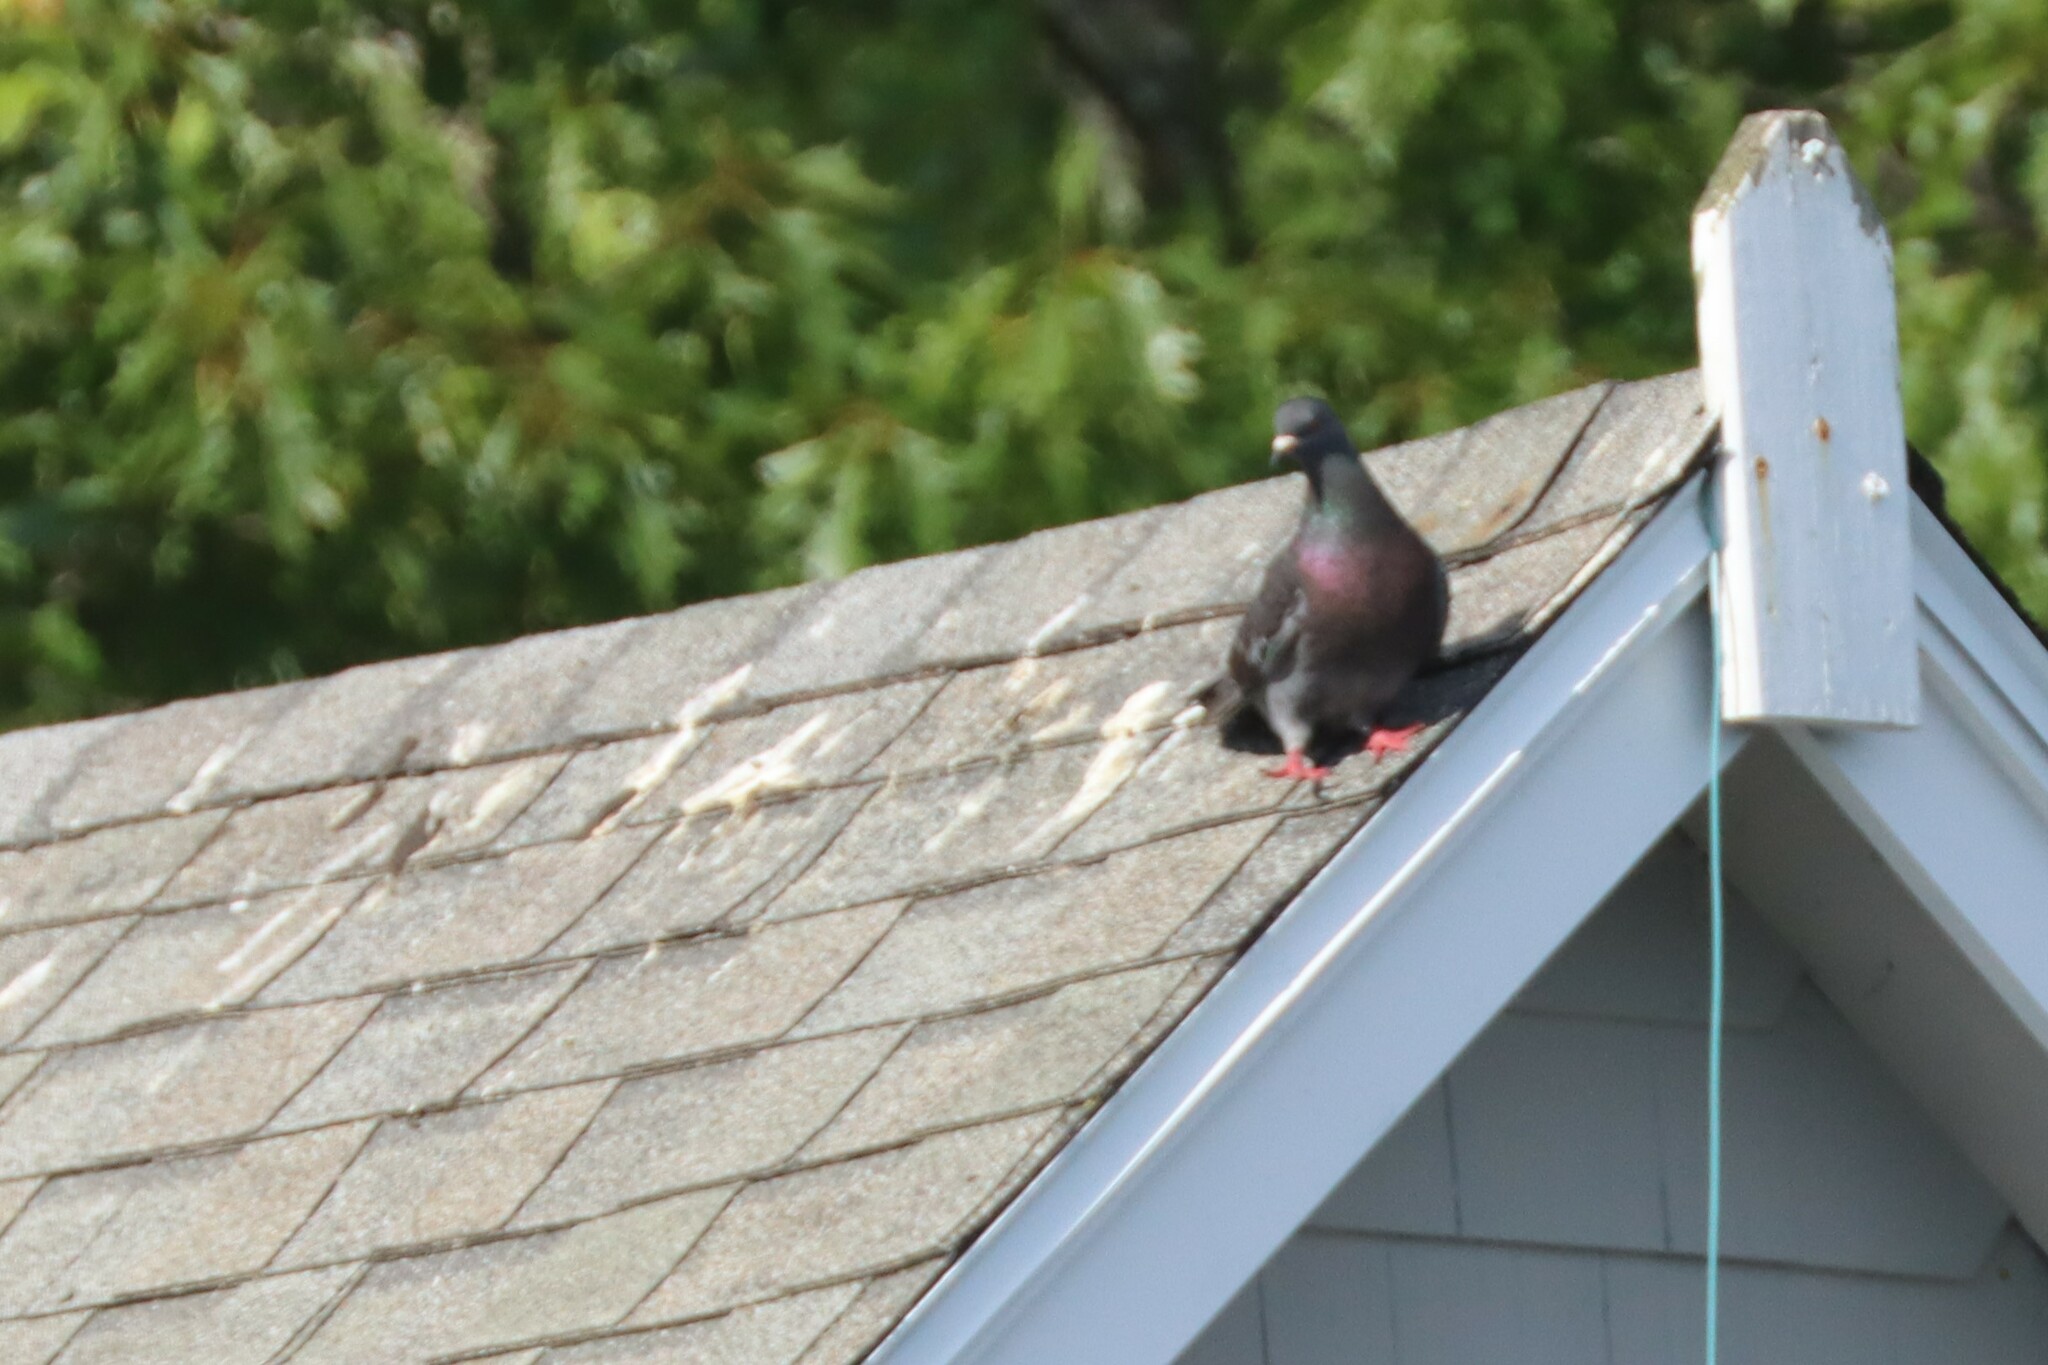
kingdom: Animalia
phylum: Chordata
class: Aves
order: Columbiformes
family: Columbidae
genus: Columba
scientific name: Columba livia
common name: Rock pigeon
